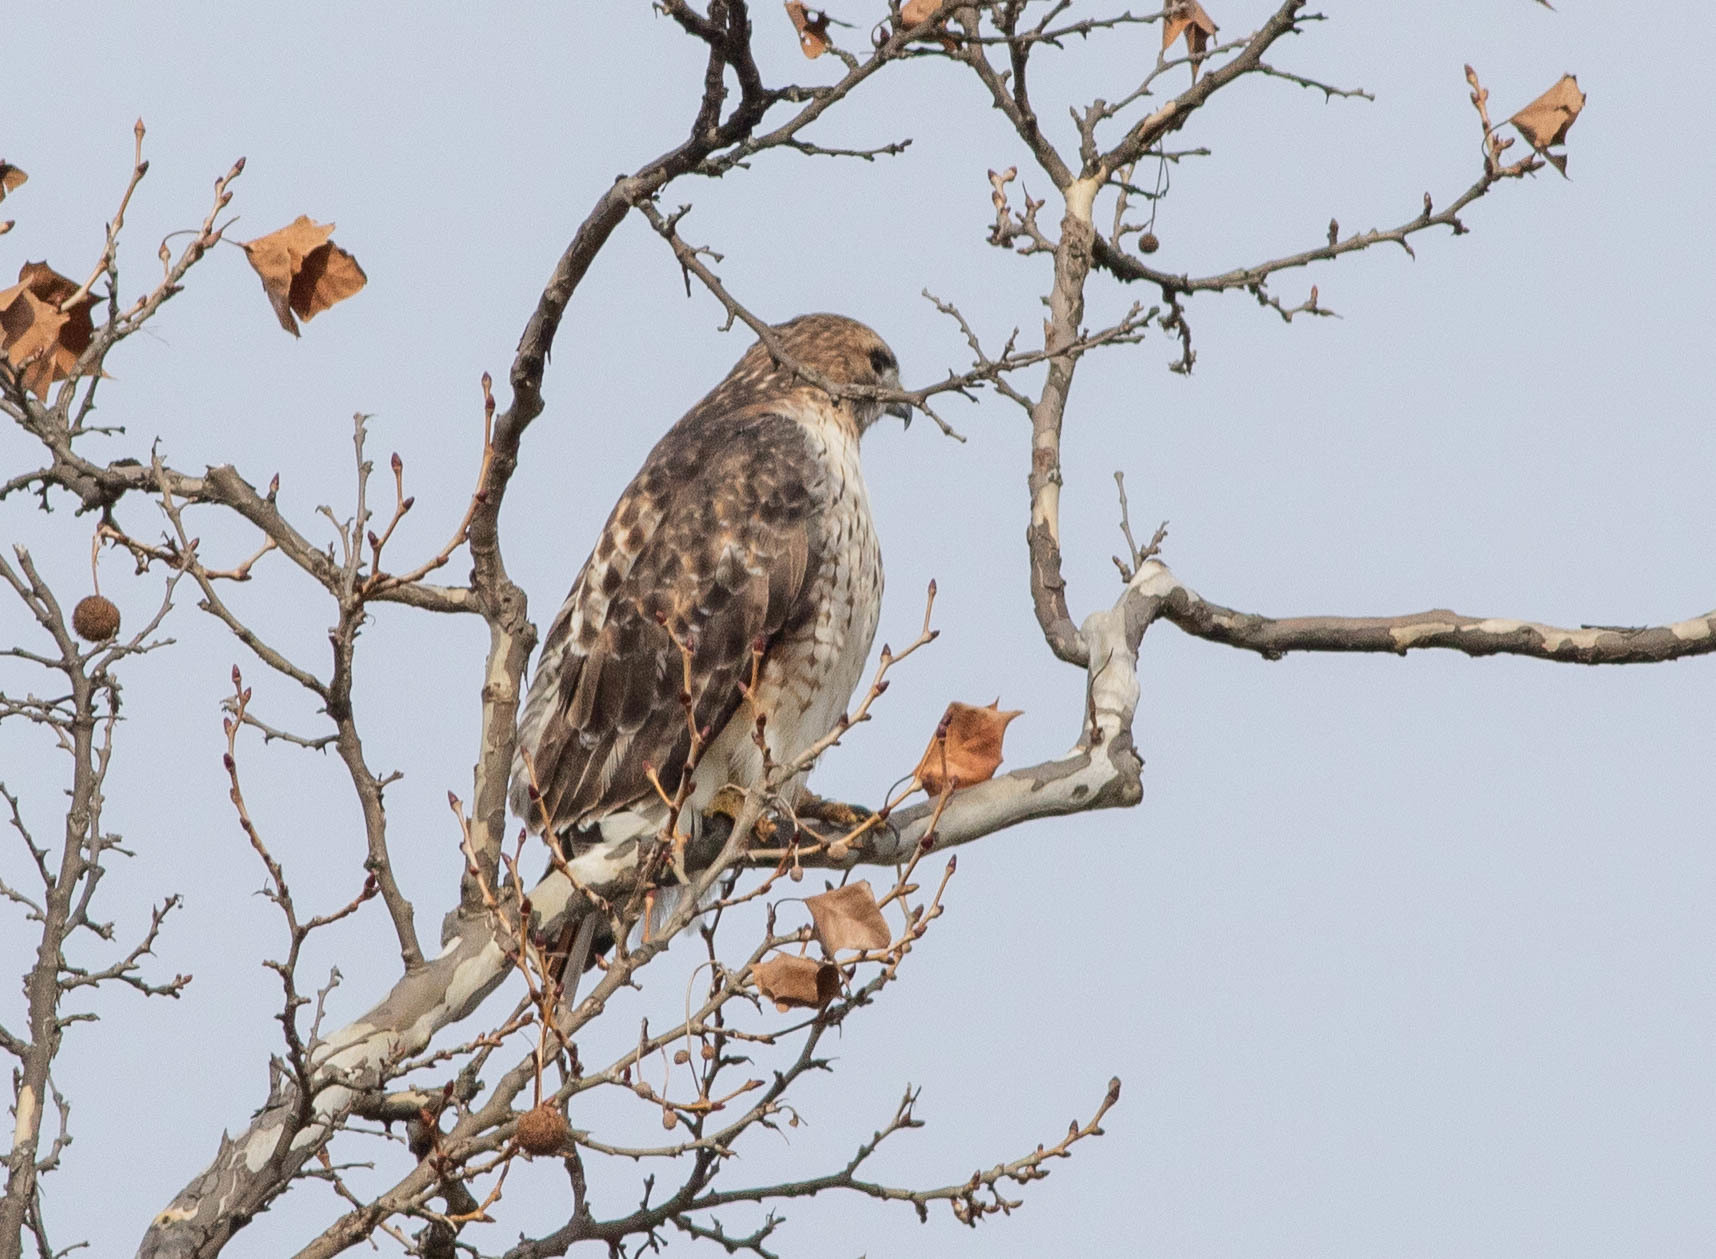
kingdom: Animalia
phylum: Chordata
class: Aves
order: Accipitriformes
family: Accipitridae
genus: Buteo
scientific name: Buteo jamaicensis
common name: Red-tailed hawk
